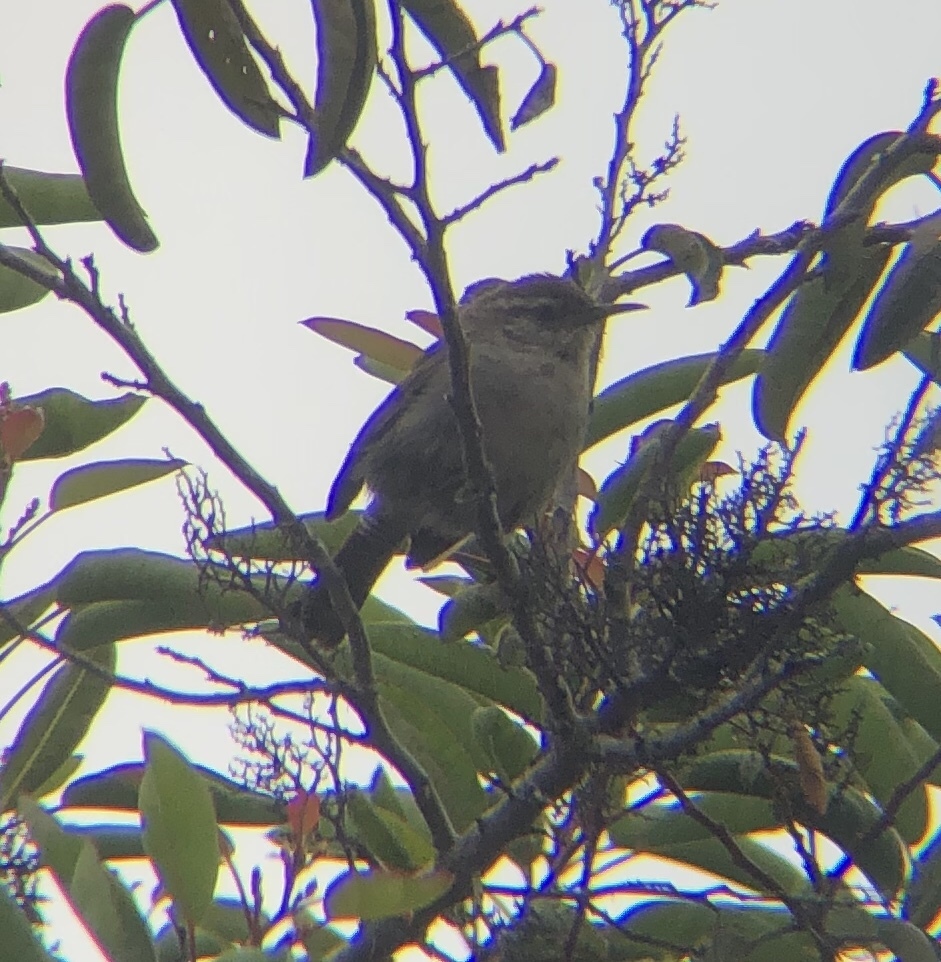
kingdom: Animalia
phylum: Chordata
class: Aves
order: Passeriformes
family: Troglodytidae
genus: Thryomanes
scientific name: Thryomanes bewickii
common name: Bewick's wren
